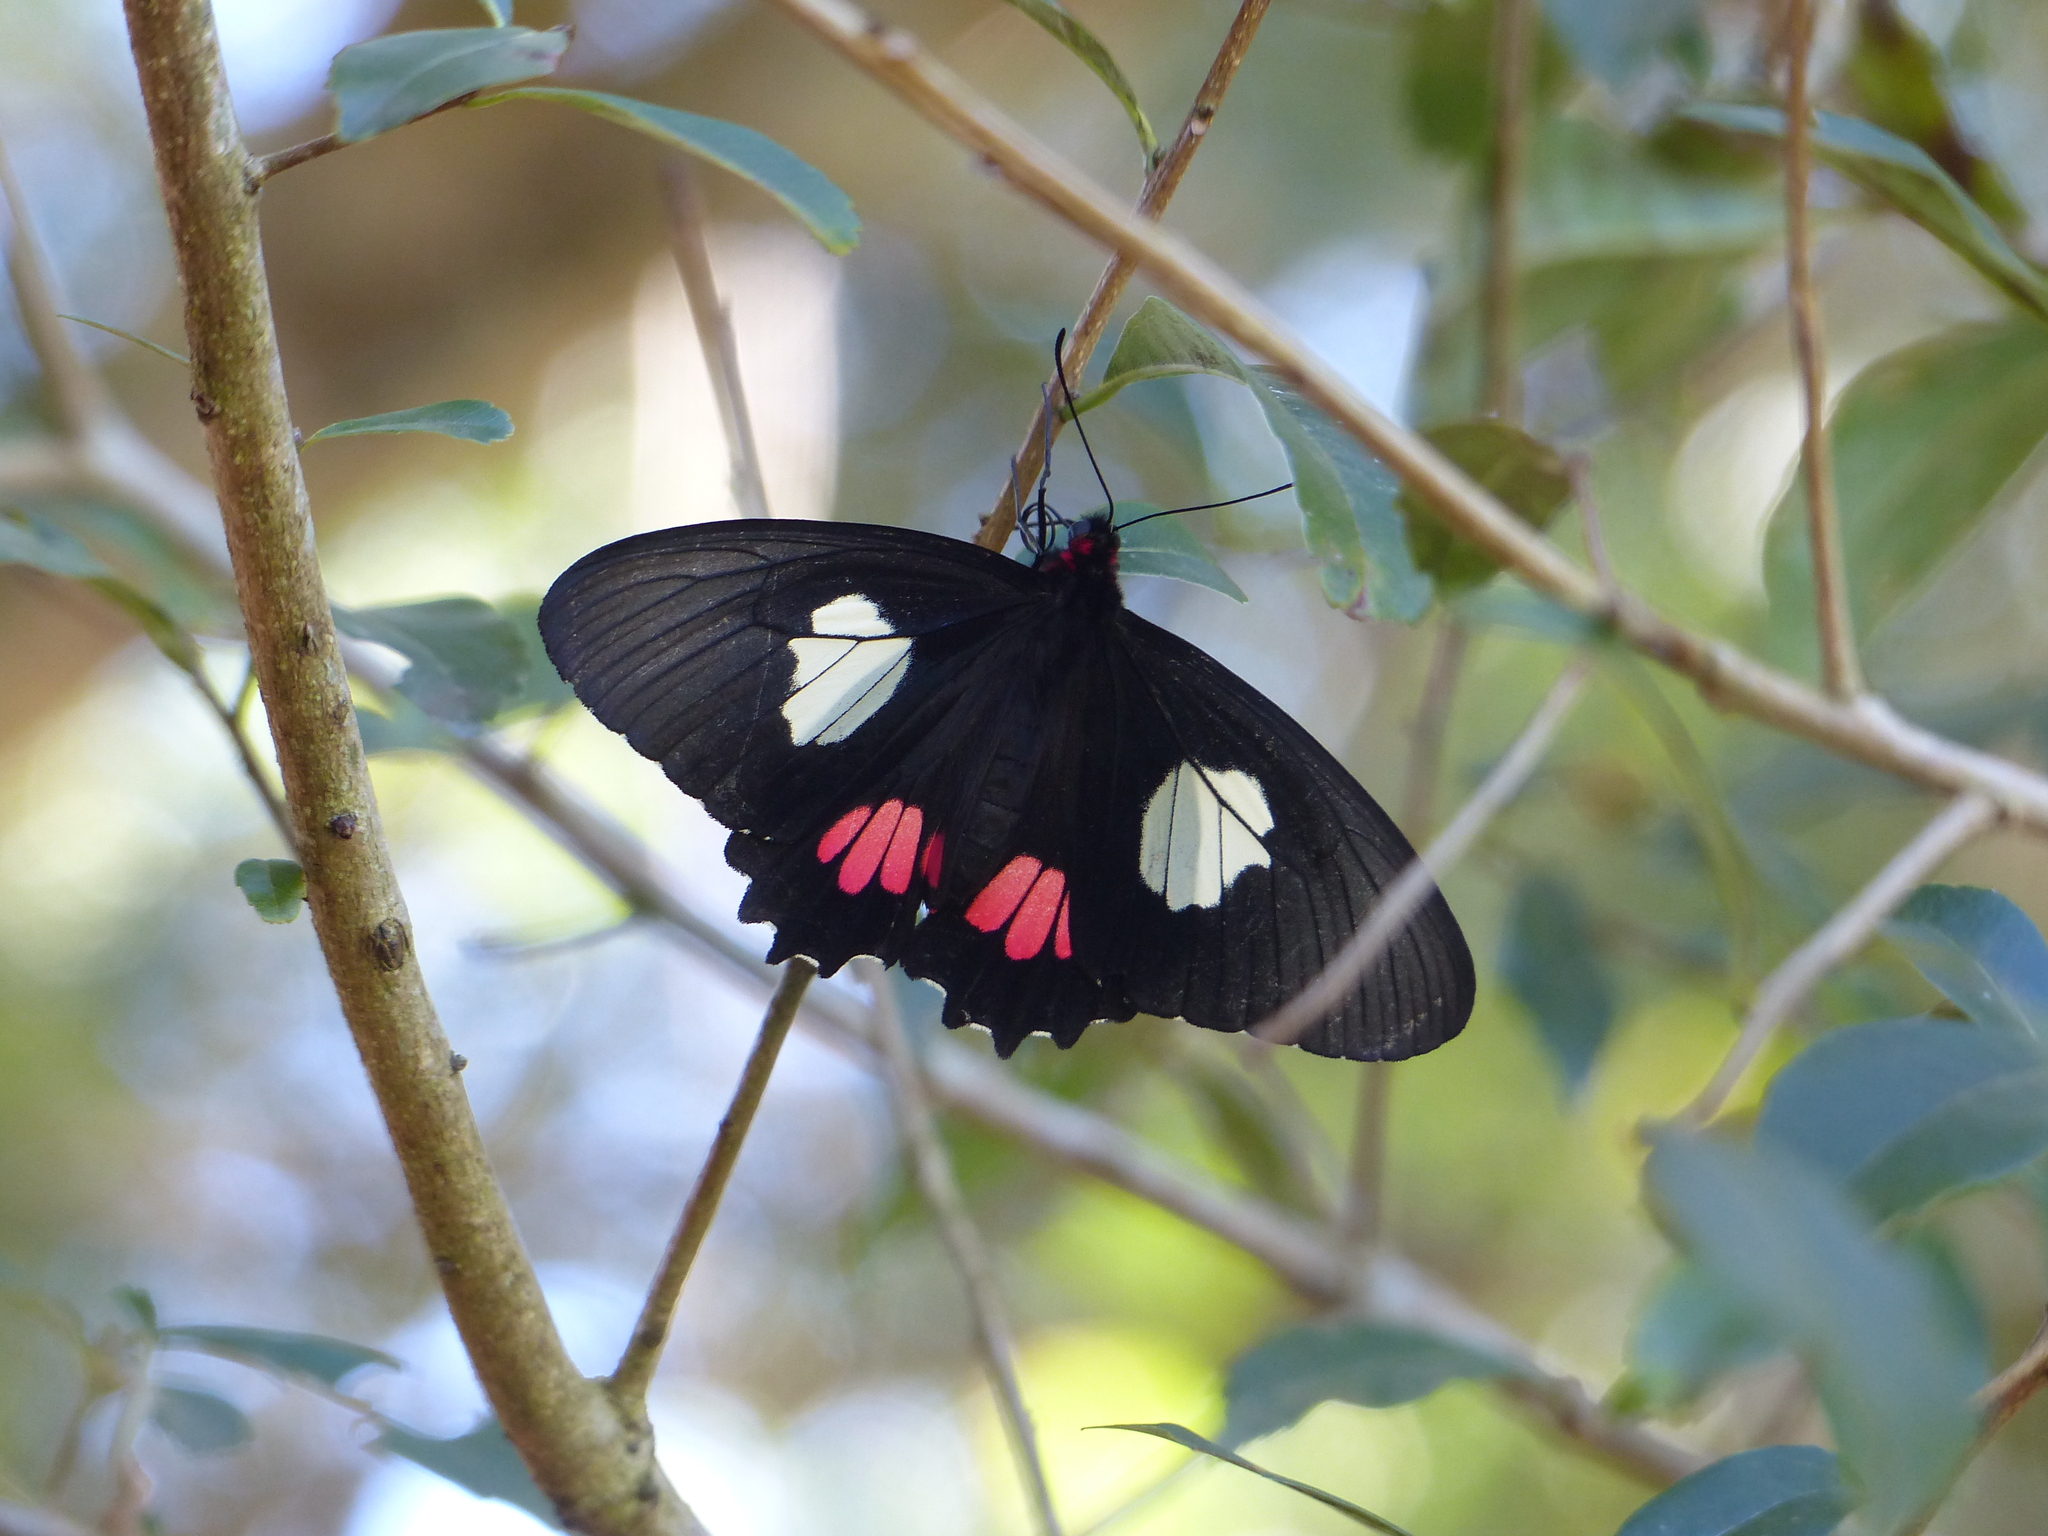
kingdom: Animalia
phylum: Arthropoda
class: Insecta
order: Lepidoptera
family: Papilionidae
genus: Parides
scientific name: Parides anchises
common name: Cattle heart
